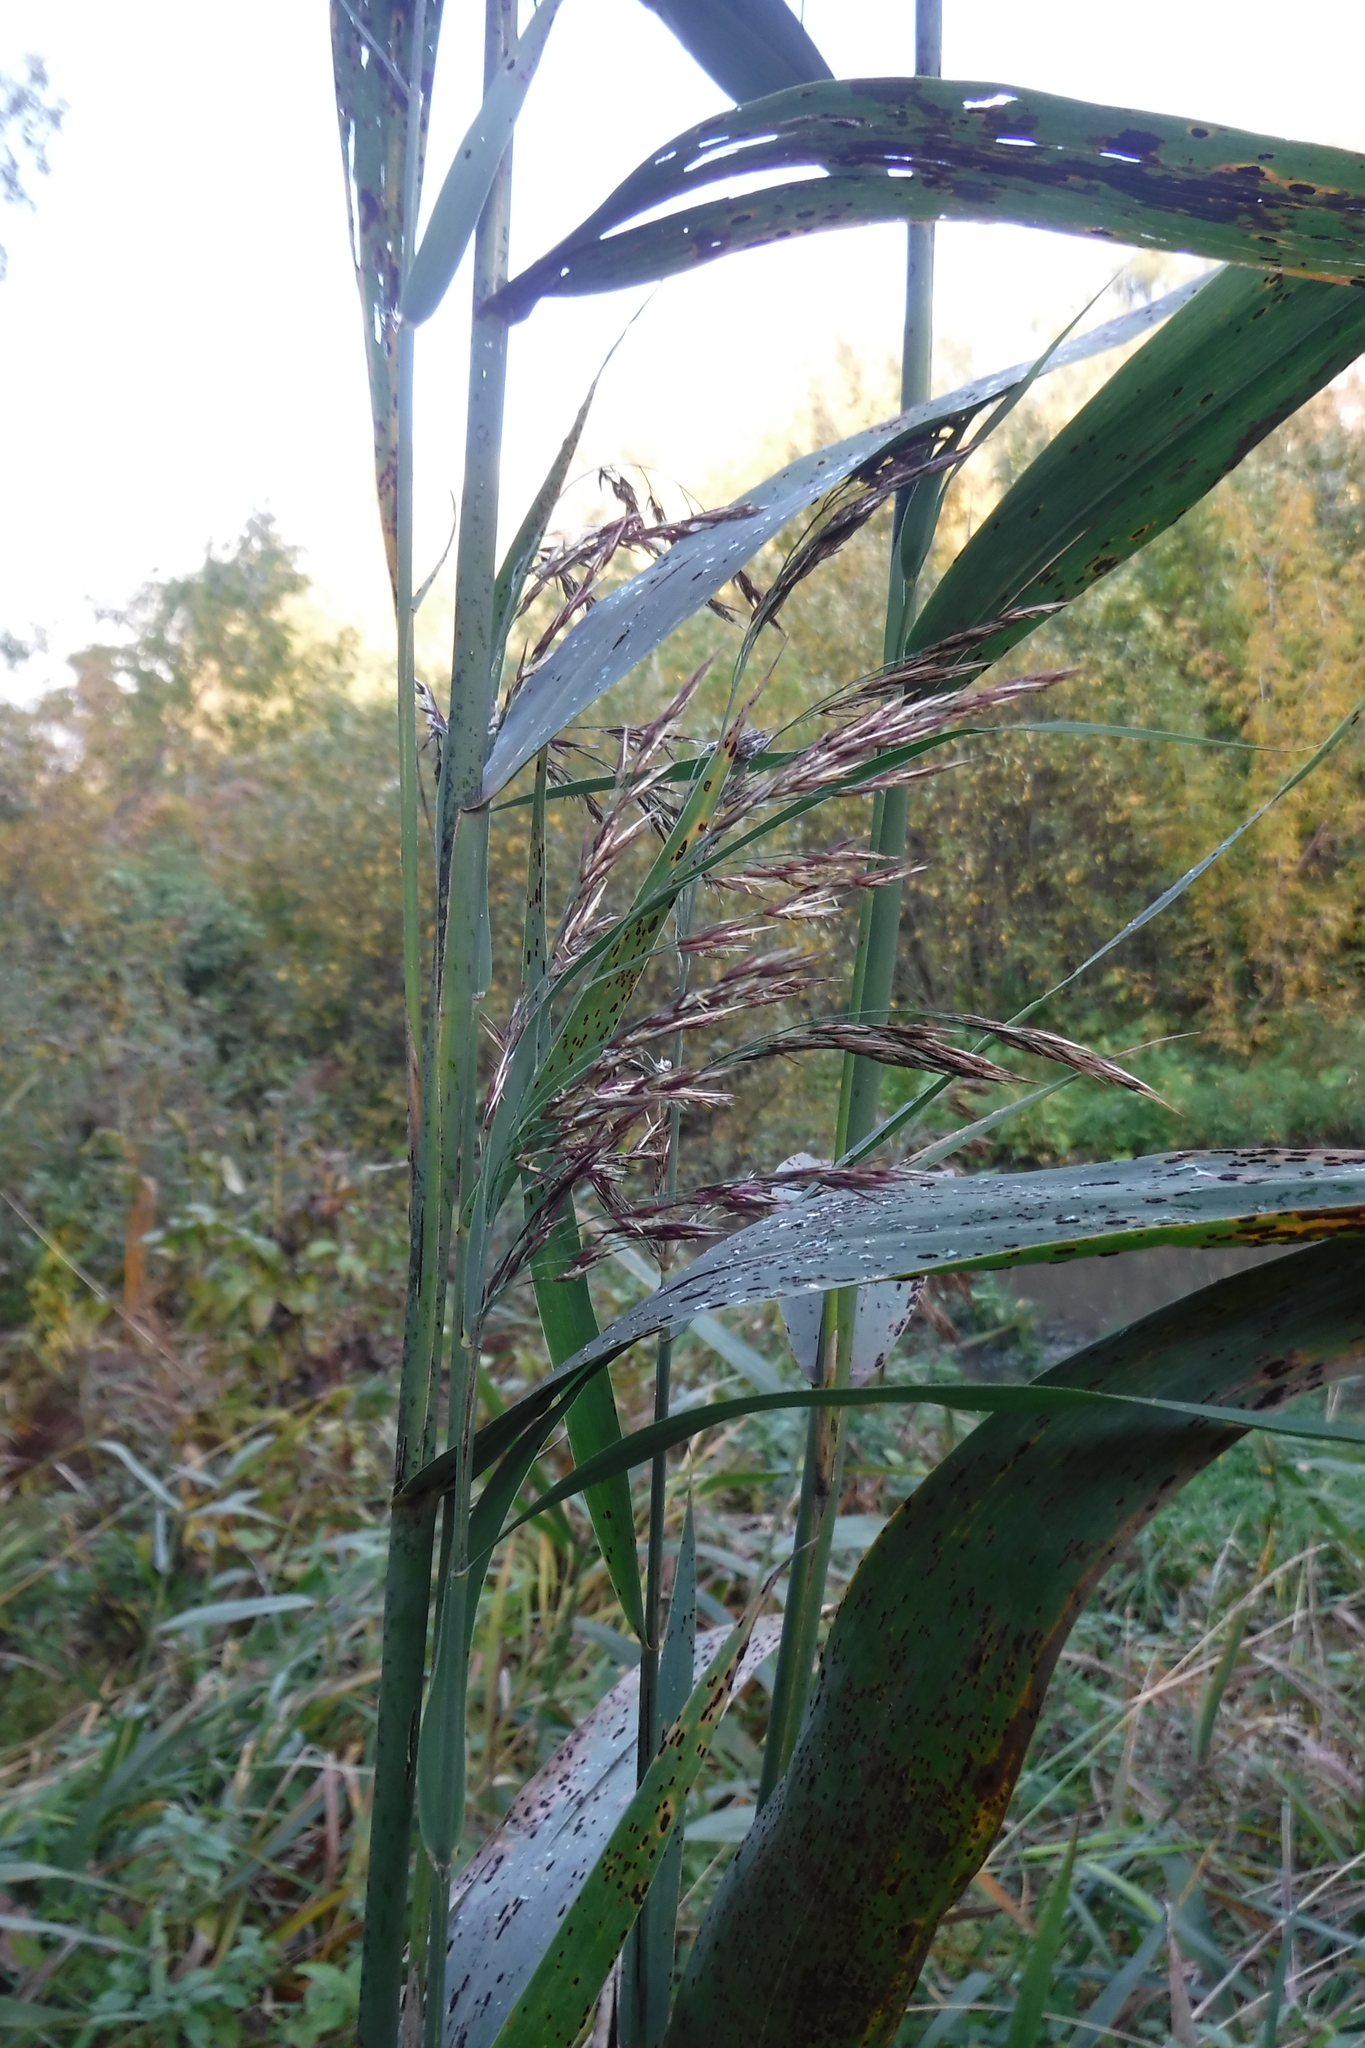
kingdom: Plantae
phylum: Tracheophyta
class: Liliopsida
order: Poales
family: Poaceae
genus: Phragmites
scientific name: Phragmites australis
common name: Common reed
